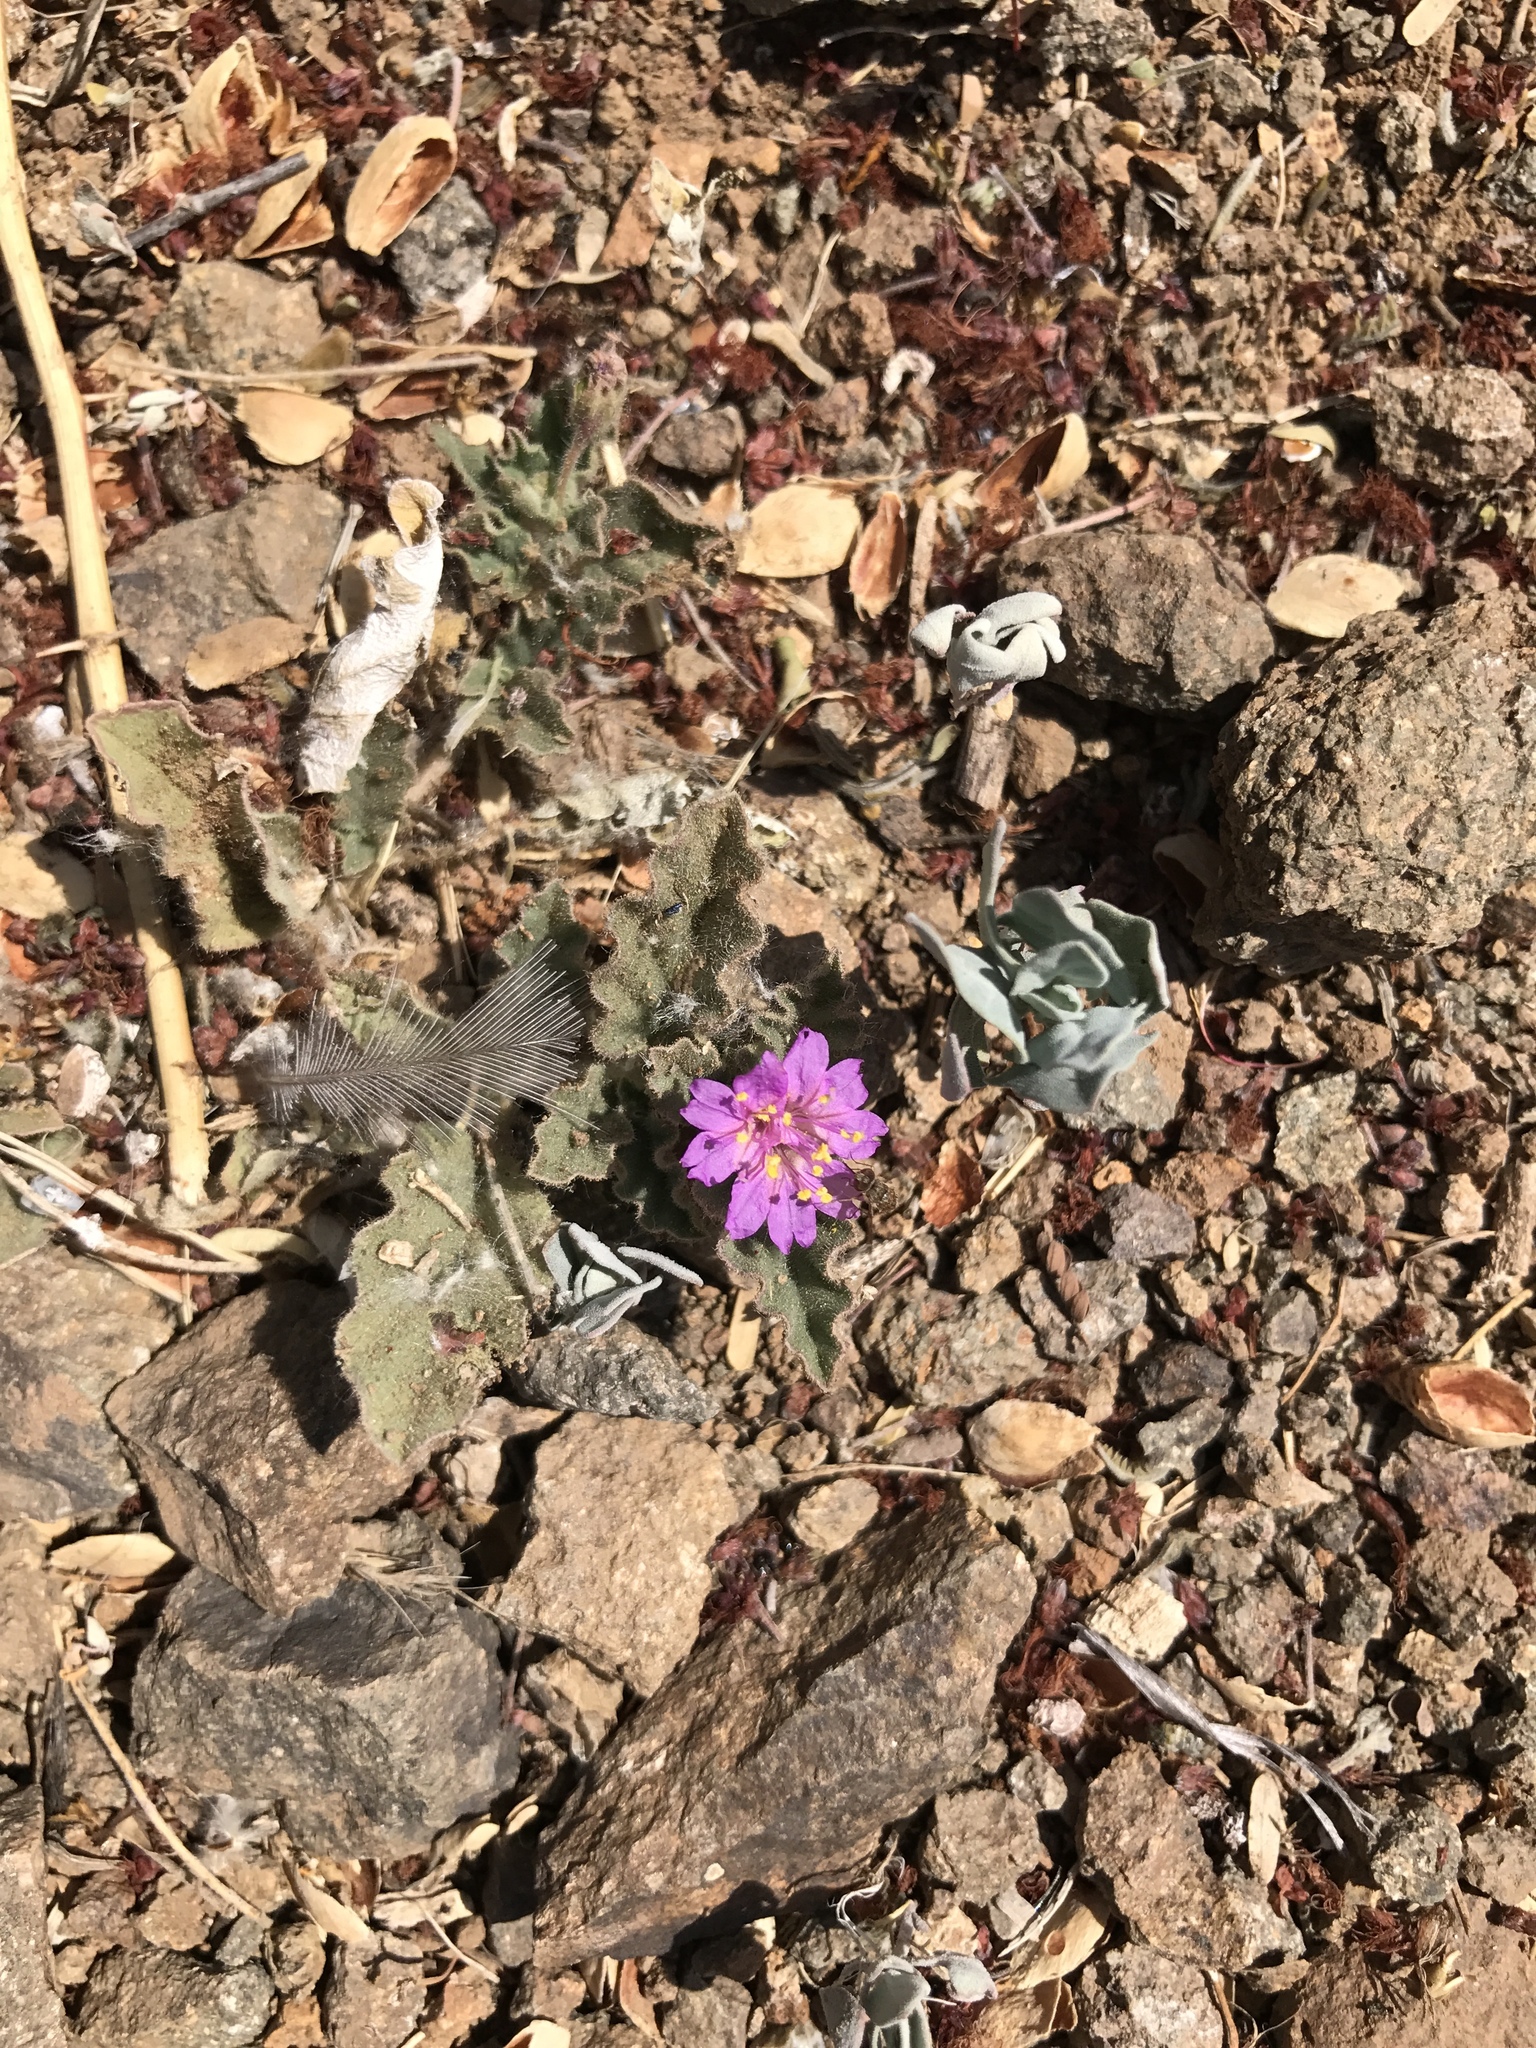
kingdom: Plantae
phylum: Tracheophyta
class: Magnoliopsida
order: Caryophyllales
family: Nyctaginaceae
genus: Allionia
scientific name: Allionia incarnata
